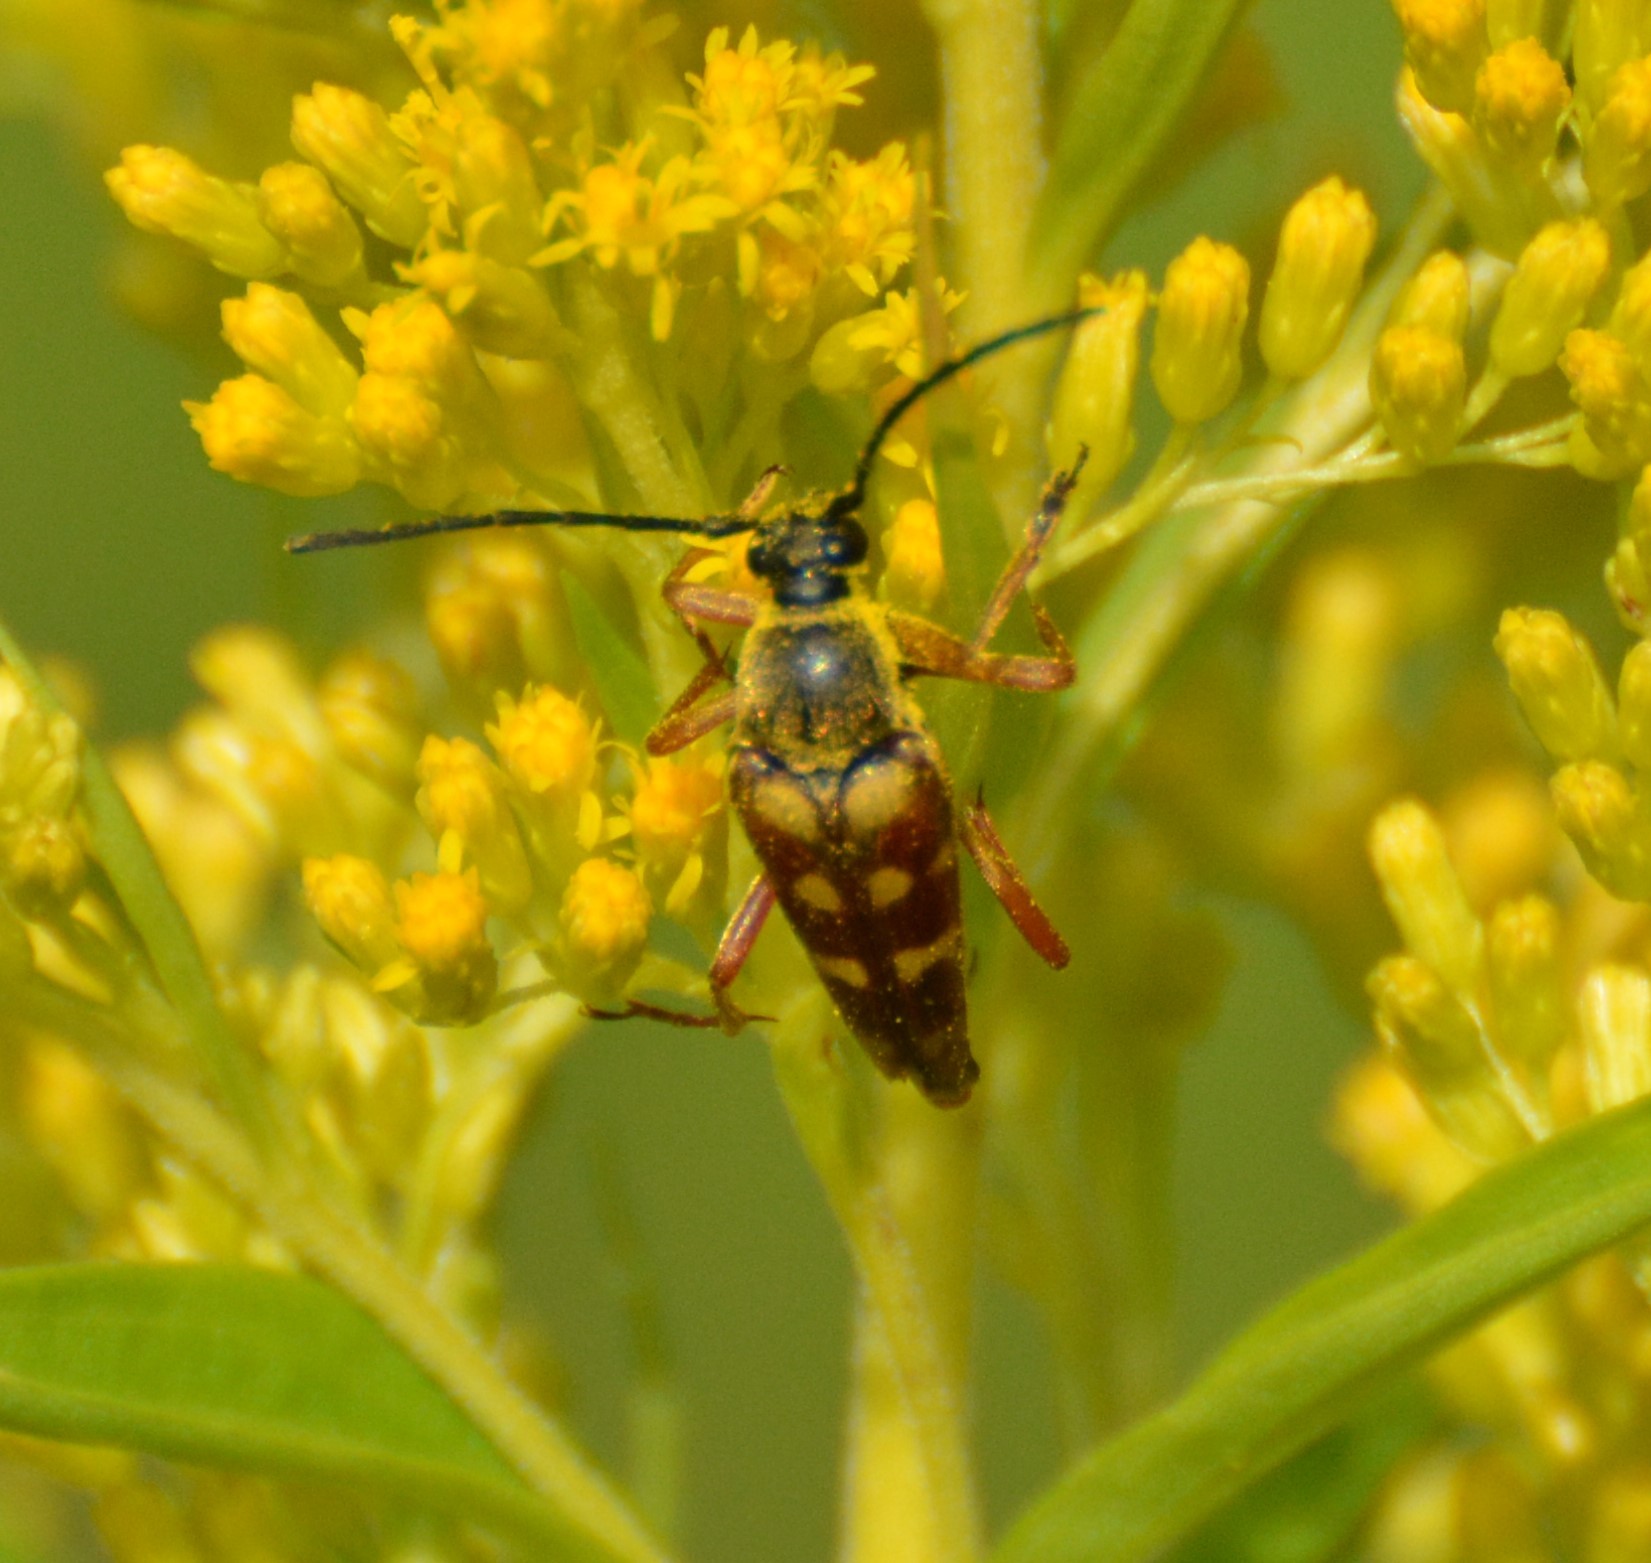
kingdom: Animalia
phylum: Arthropoda
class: Insecta
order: Coleoptera
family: Cerambycidae
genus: Typocerus
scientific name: Typocerus velutinus
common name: Banded longhorn beetle
